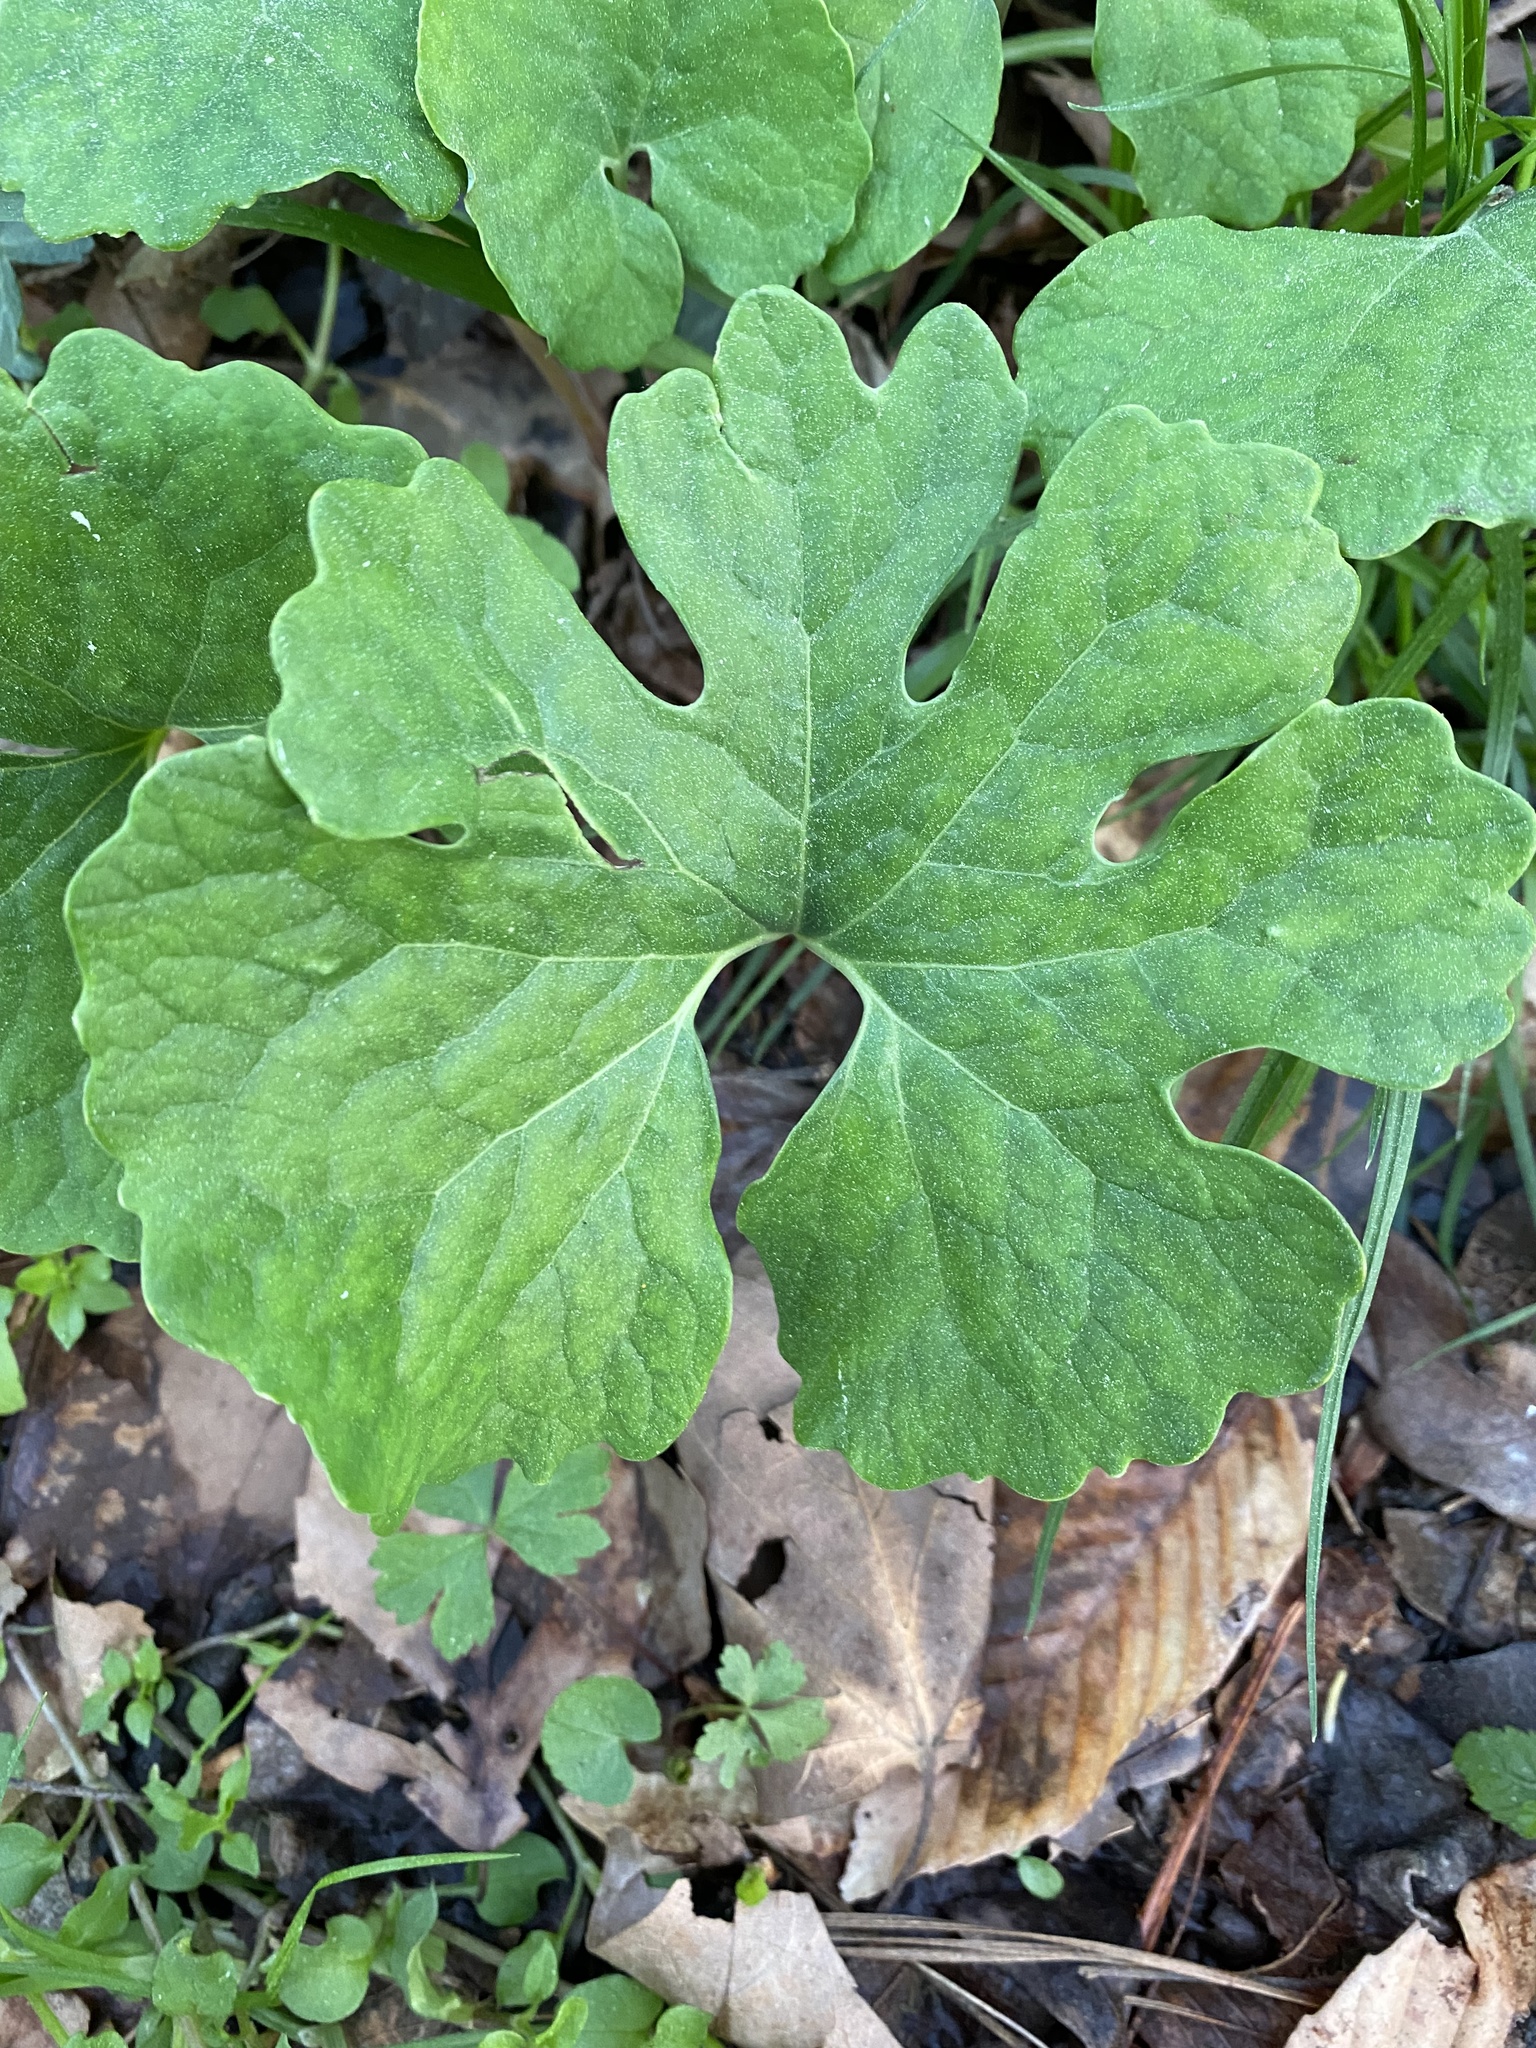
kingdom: Plantae
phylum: Tracheophyta
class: Magnoliopsida
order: Ranunculales
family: Papaveraceae
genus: Sanguinaria
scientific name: Sanguinaria canadensis
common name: Bloodroot
